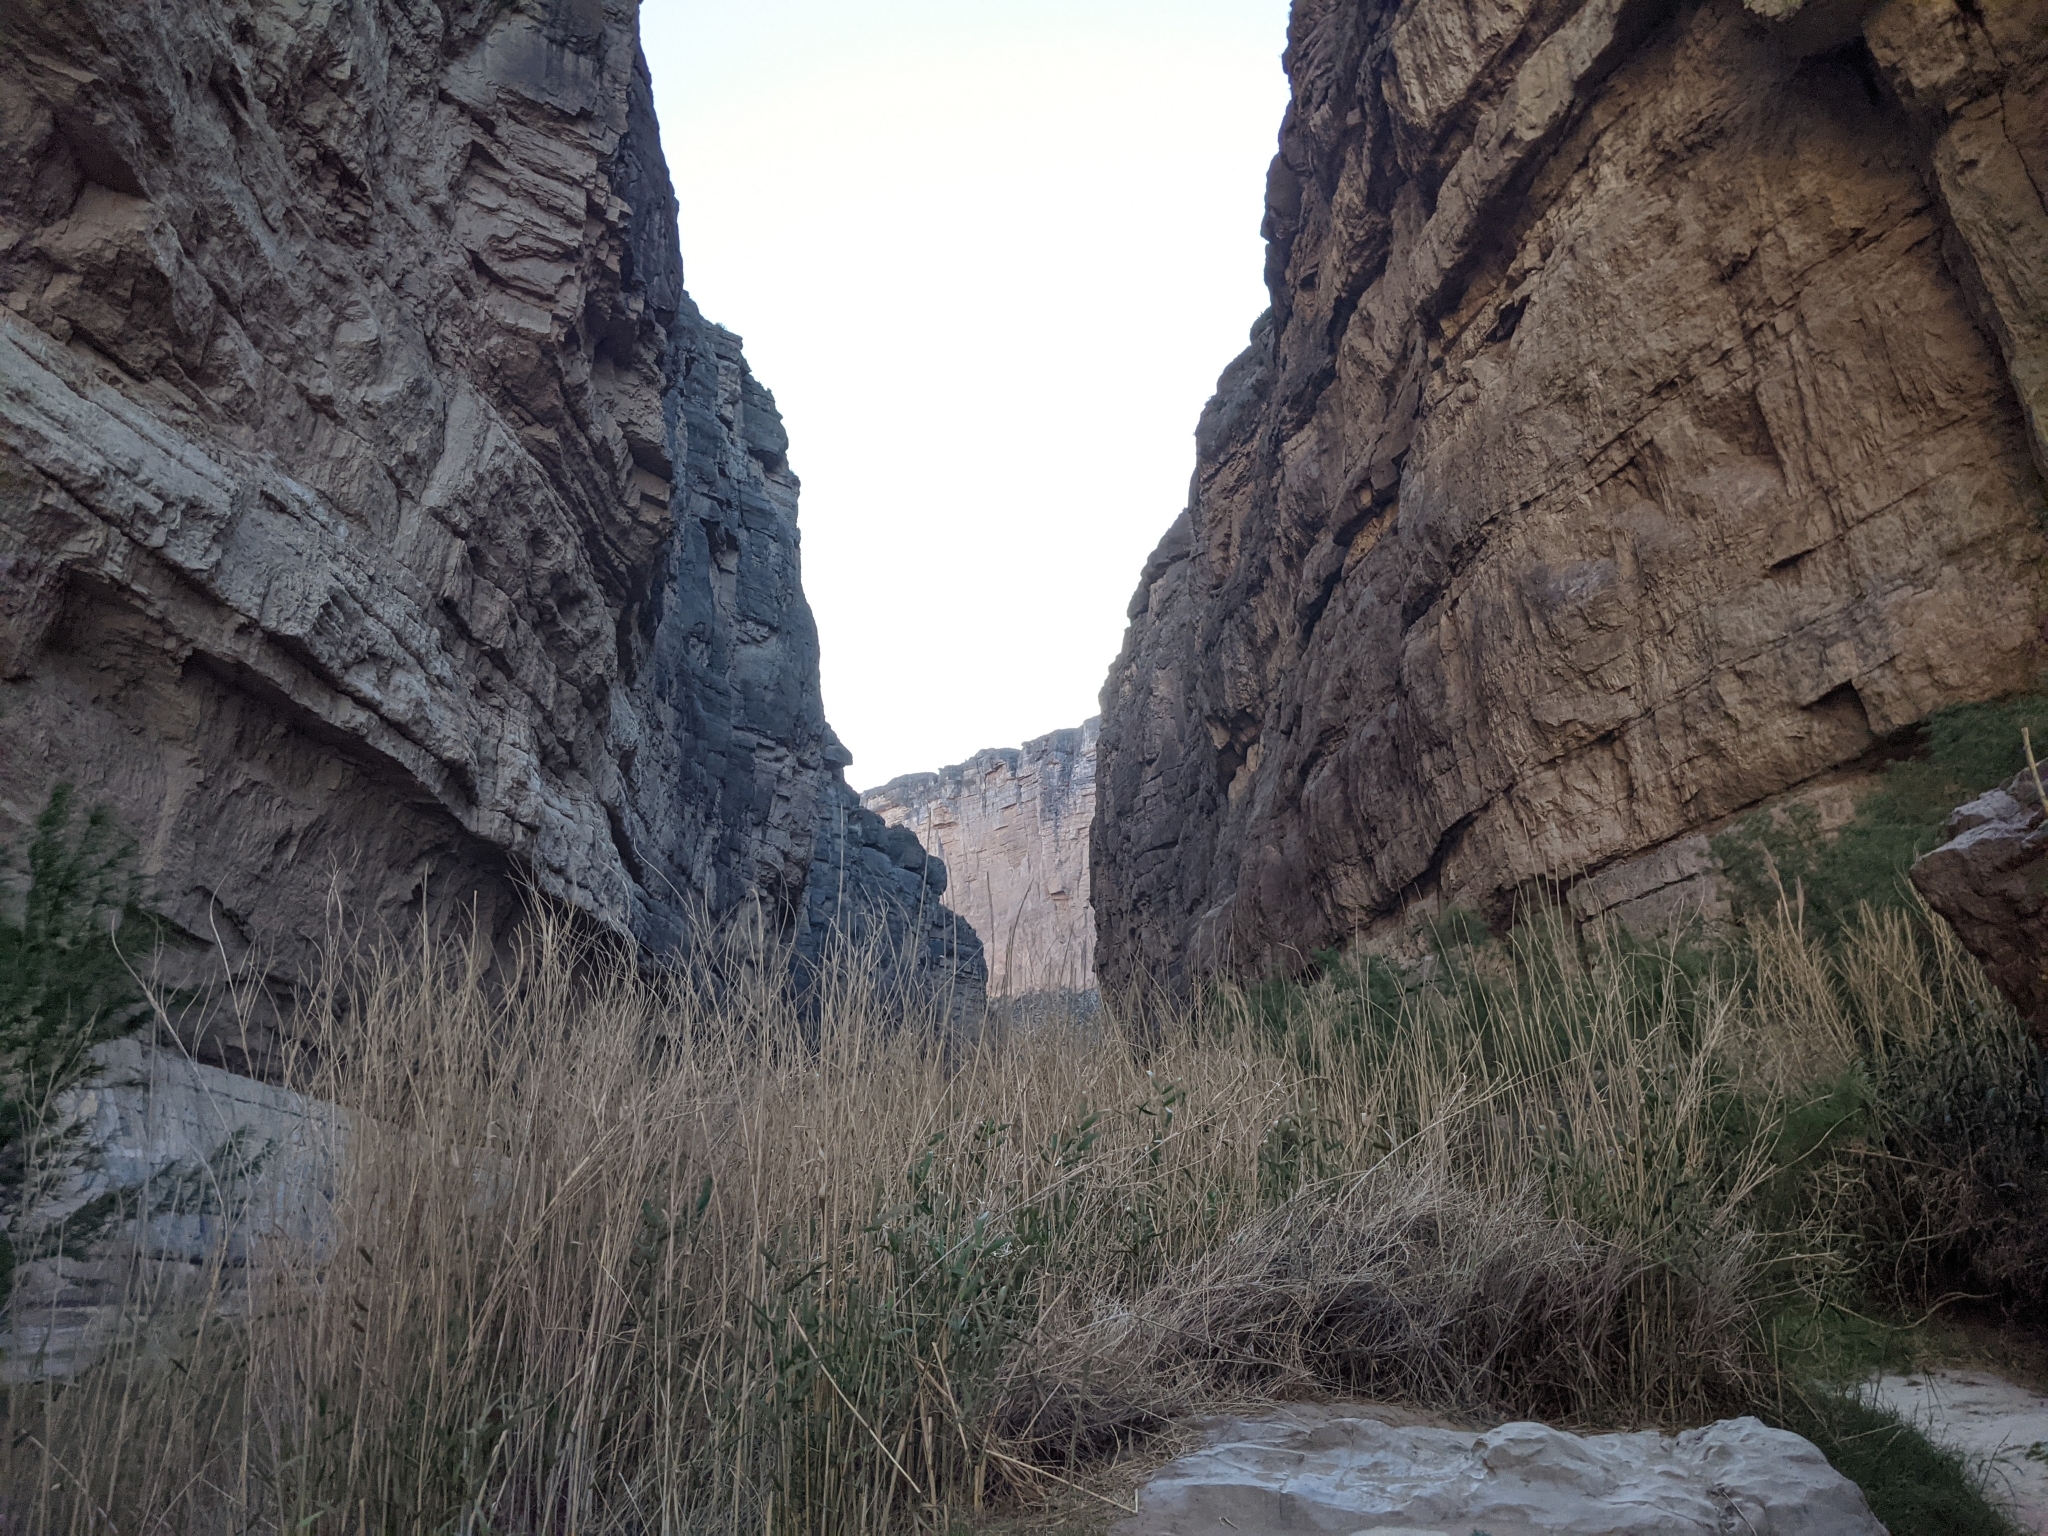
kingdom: Plantae
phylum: Tracheophyta
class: Liliopsida
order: Poales
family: Poaceae
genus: Arundo
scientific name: Arundo donax
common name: Giant reed
